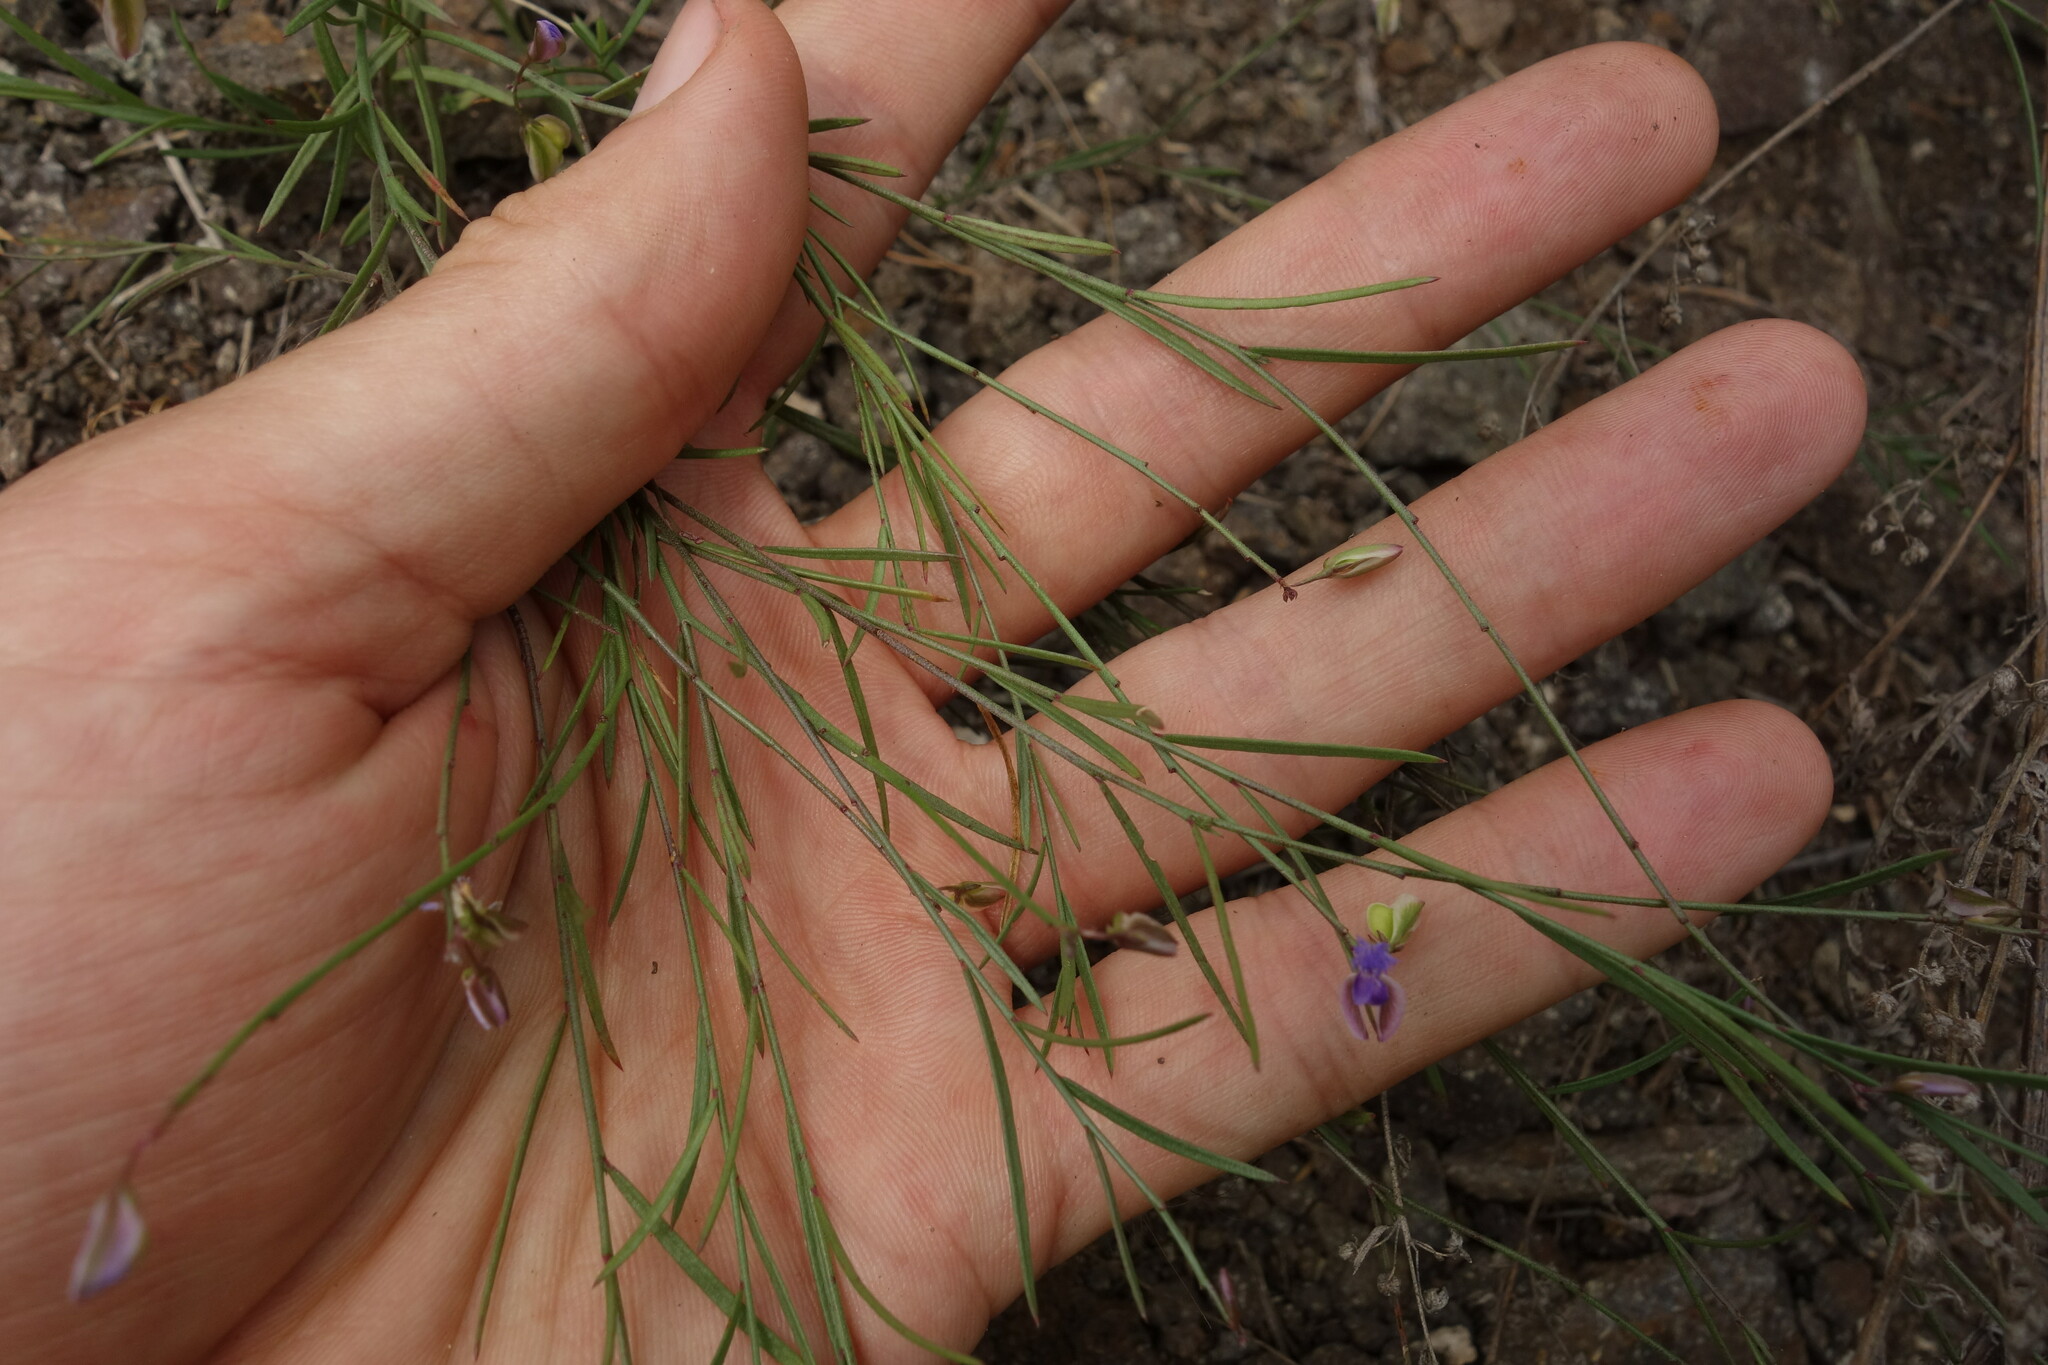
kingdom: Plantae
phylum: Tracheophyta
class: Magnoliopsida
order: Fabales
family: Polygalaceae
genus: Polygala
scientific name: Polygala tenuifolia
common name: Chinese senega-root
